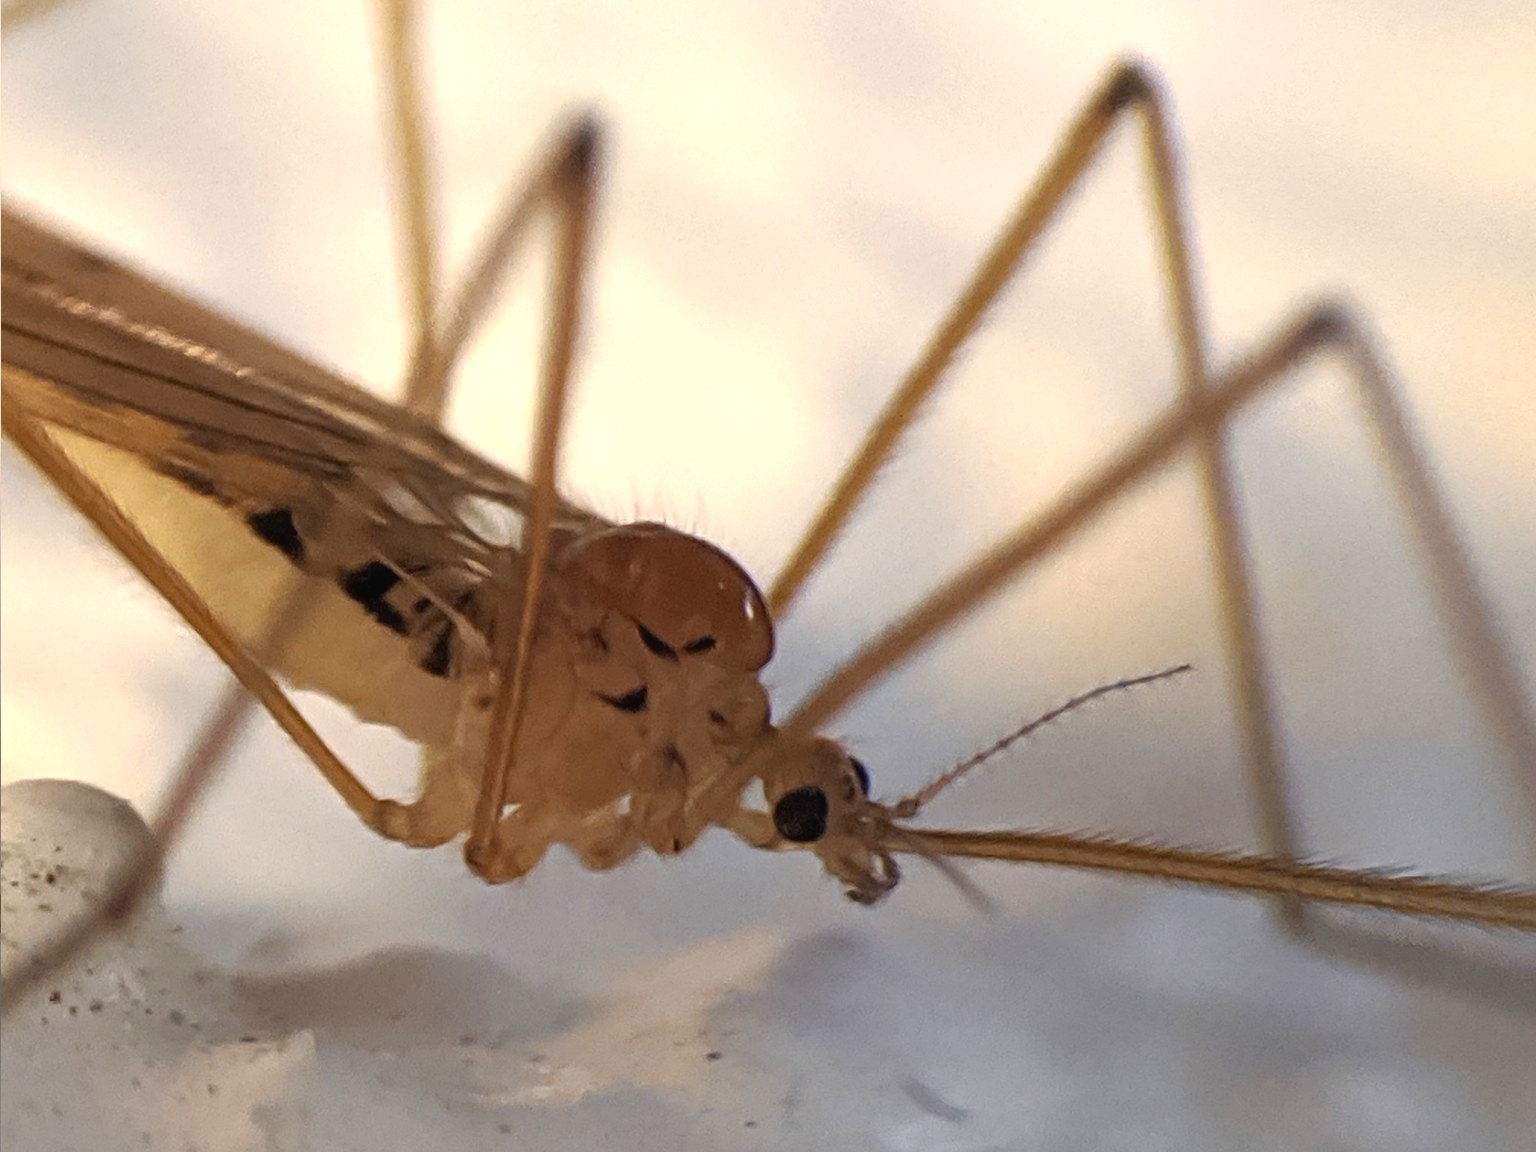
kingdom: Animalia
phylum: Arthropoda
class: Insecta
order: Diptera
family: Limoniidae
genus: Cladura
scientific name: Cladura flavoferruginea
